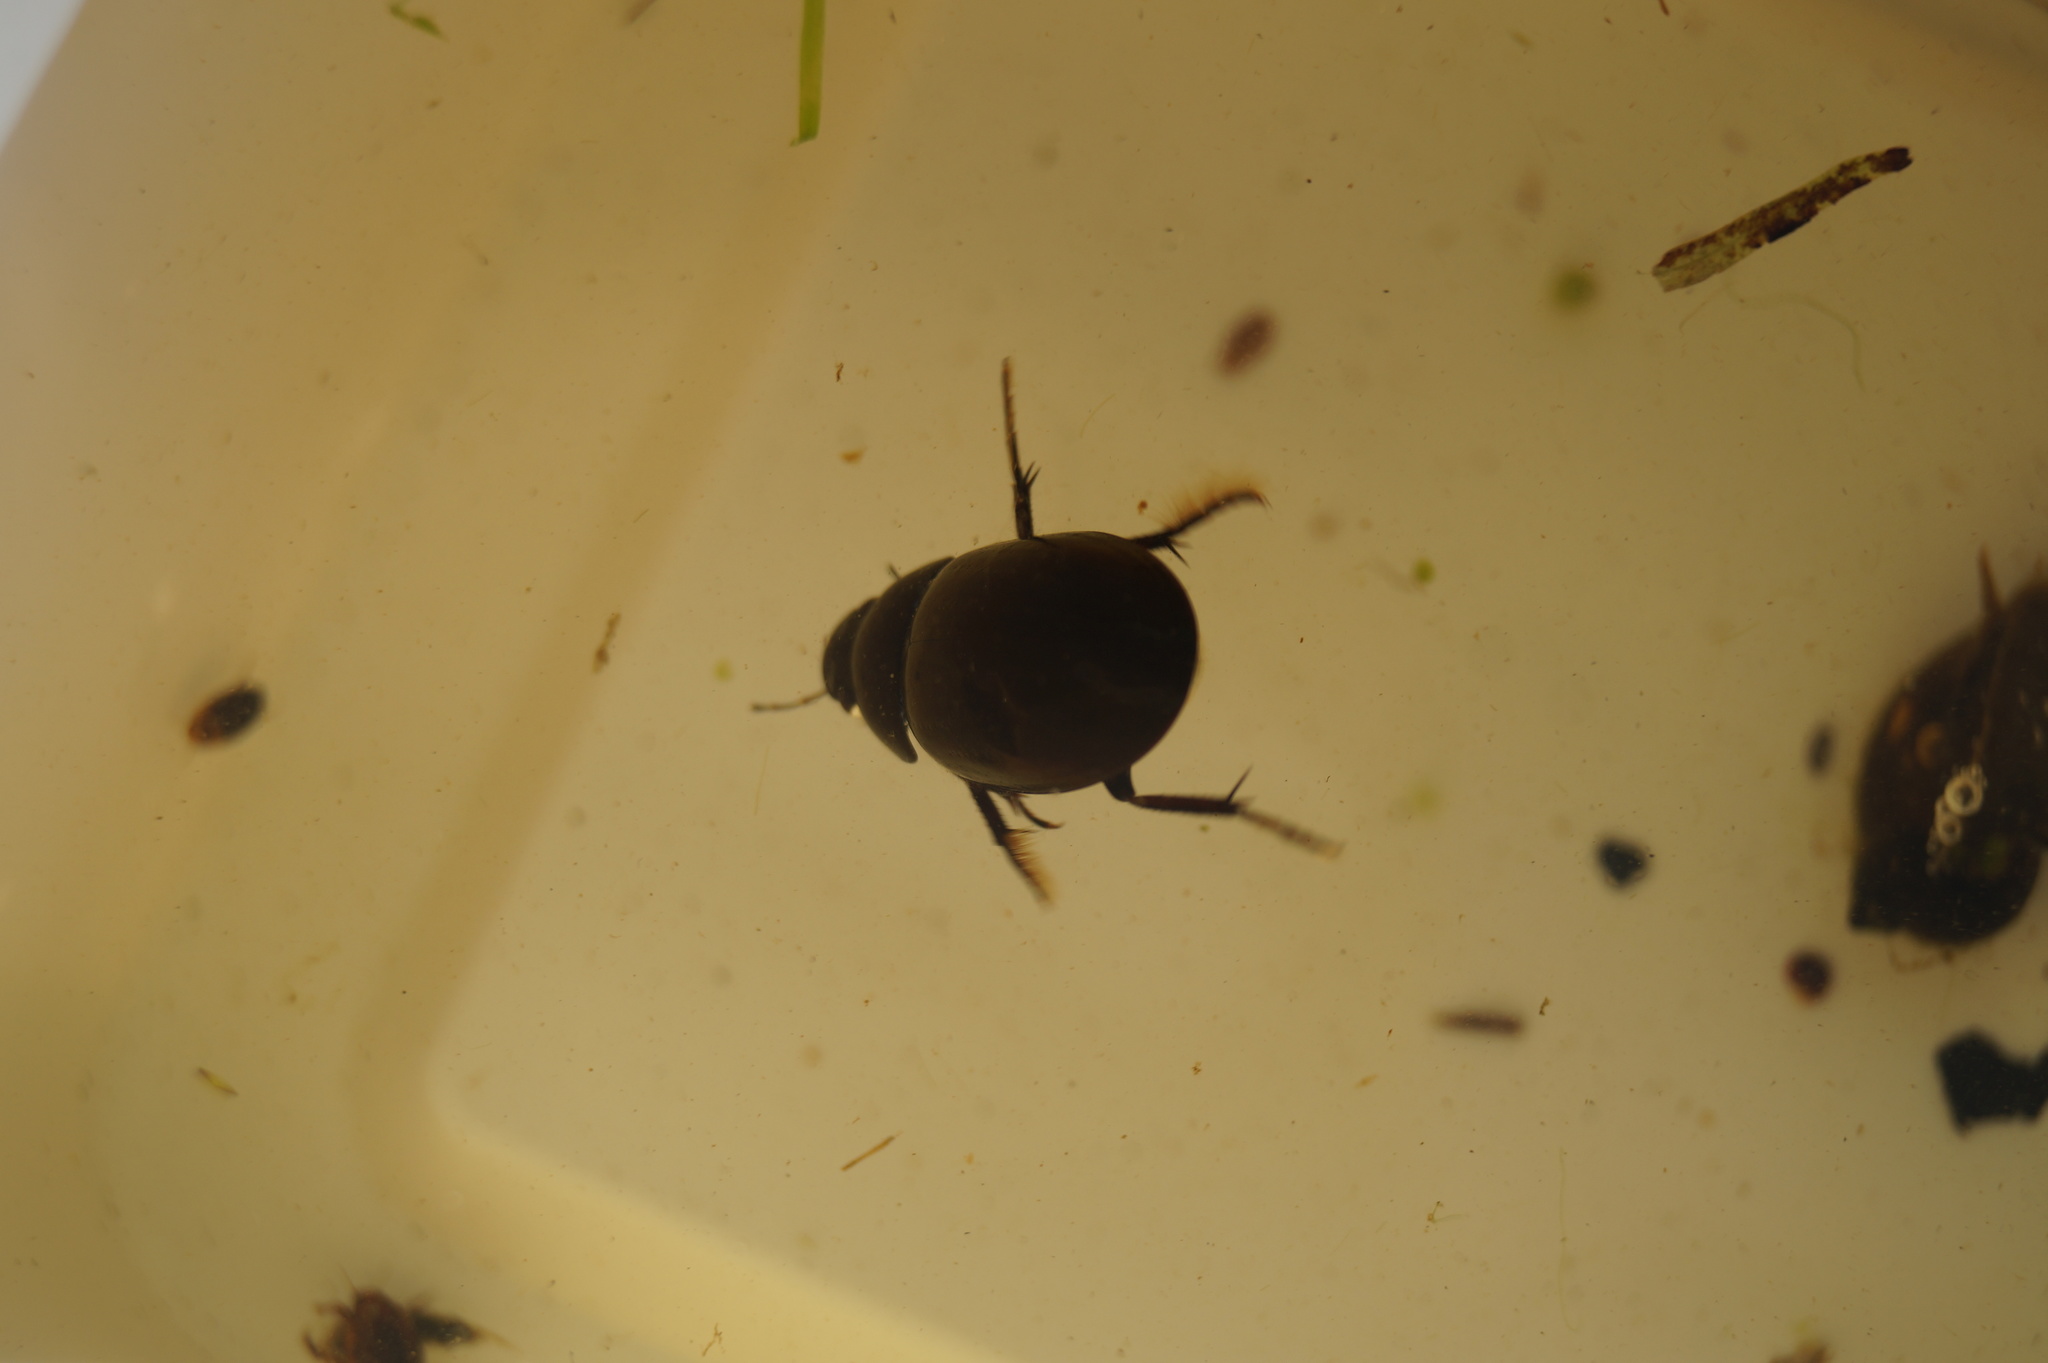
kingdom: Animalia
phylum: Arthropoda
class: Insecta
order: Coleoptera
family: Hydrophilidae
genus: Hydrochara
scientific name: Hydrochara caraboides
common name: Lesser silver water beetle
